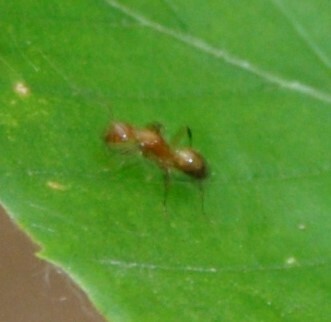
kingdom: Animalia
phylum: Arthropoda
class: Insecta
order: Hymenoptera
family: Formicidae
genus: Camponotus
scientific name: Camponotus snellingi
